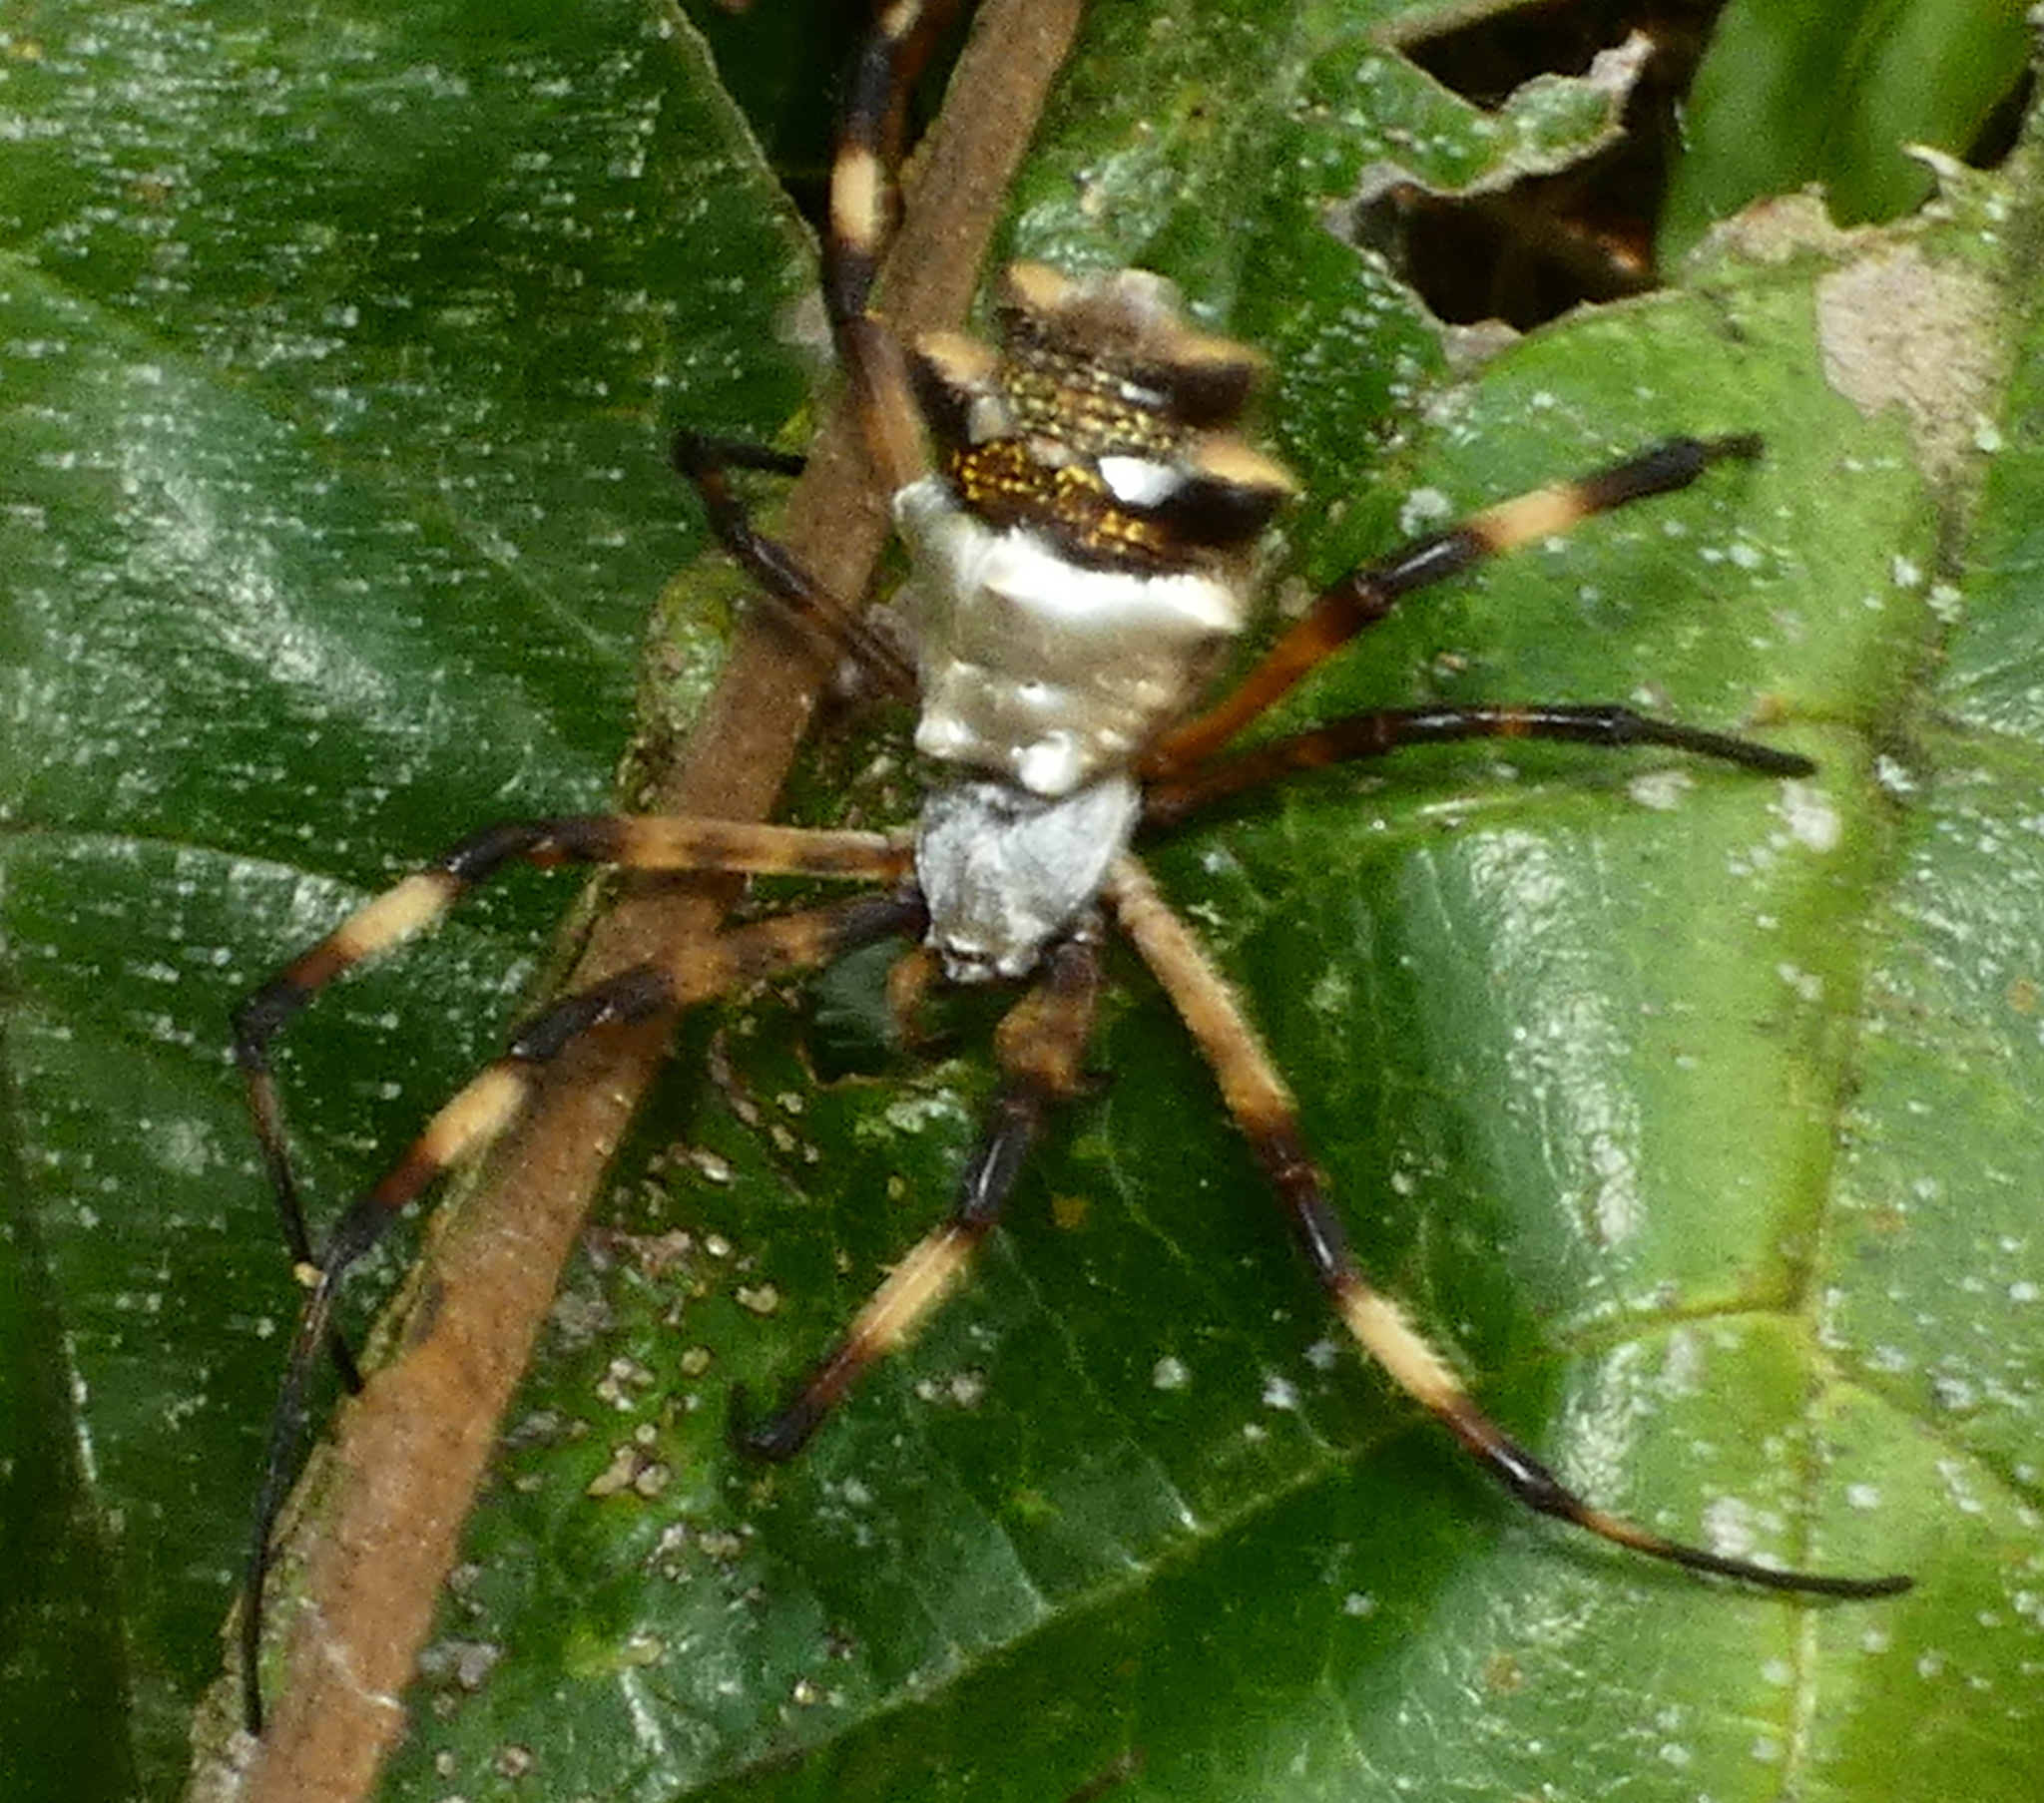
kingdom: Animalia
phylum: Arthropoda
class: Arachnida
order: Araneae
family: Araneidae
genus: Argiope
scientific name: Argiope argentata
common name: Orb weavers
